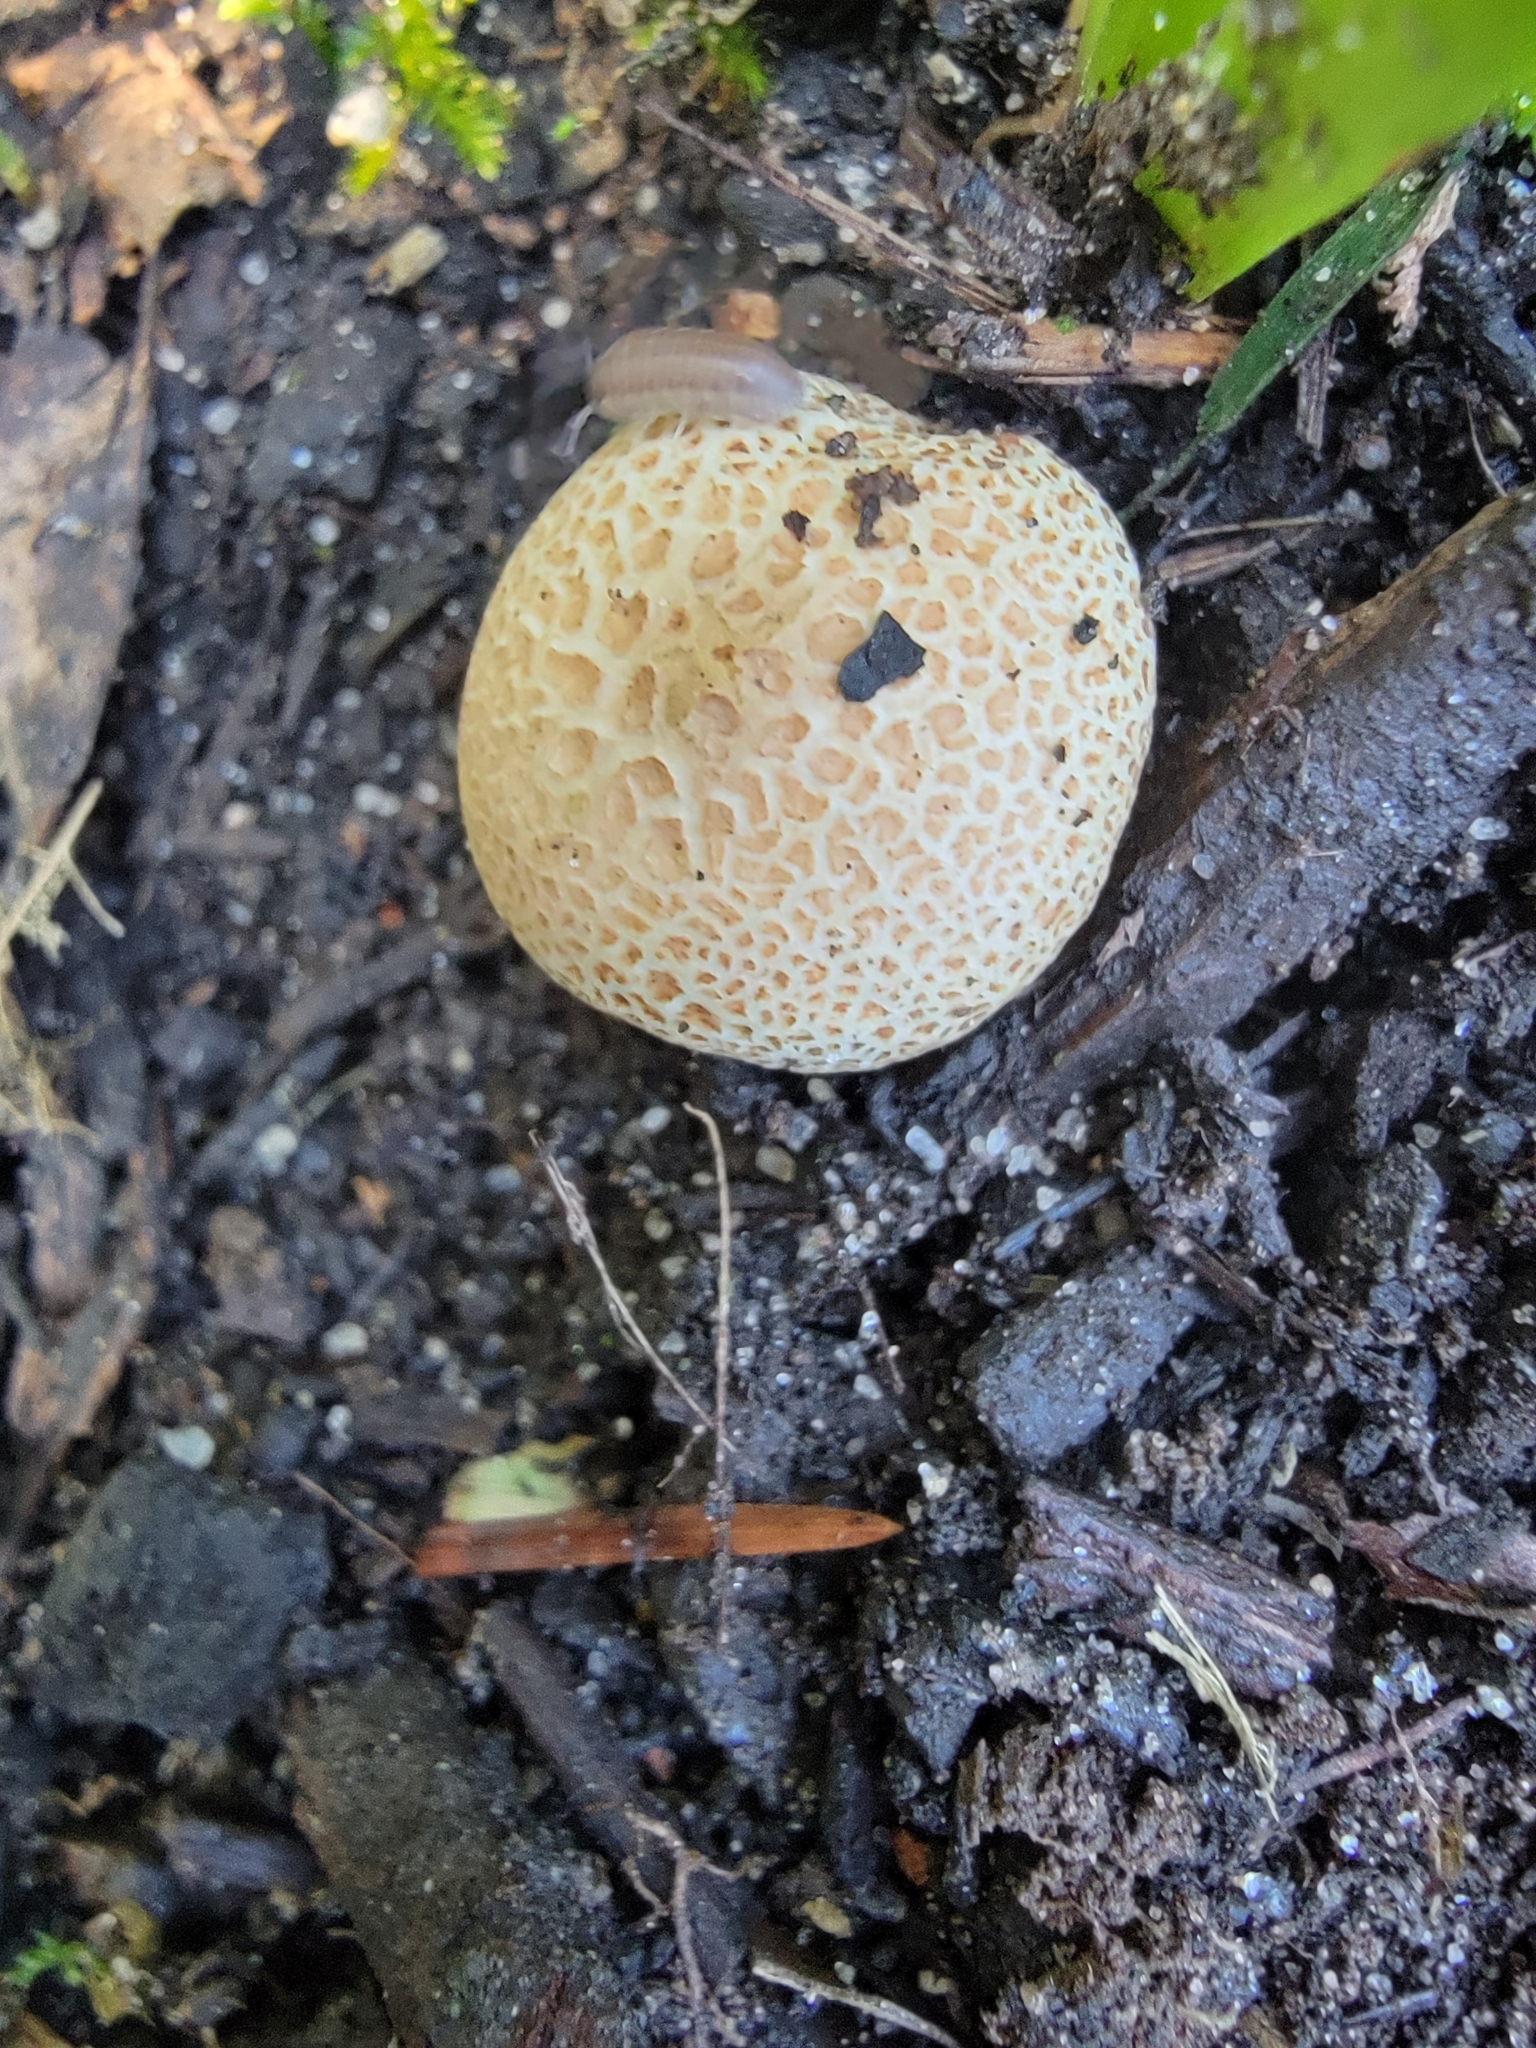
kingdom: Fungi
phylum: Basidiomycota
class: Agaricomycetes
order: Boletales
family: Sclerodermataceae
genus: Scleroderma
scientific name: Scleroderma citrinum
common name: Common earthball
